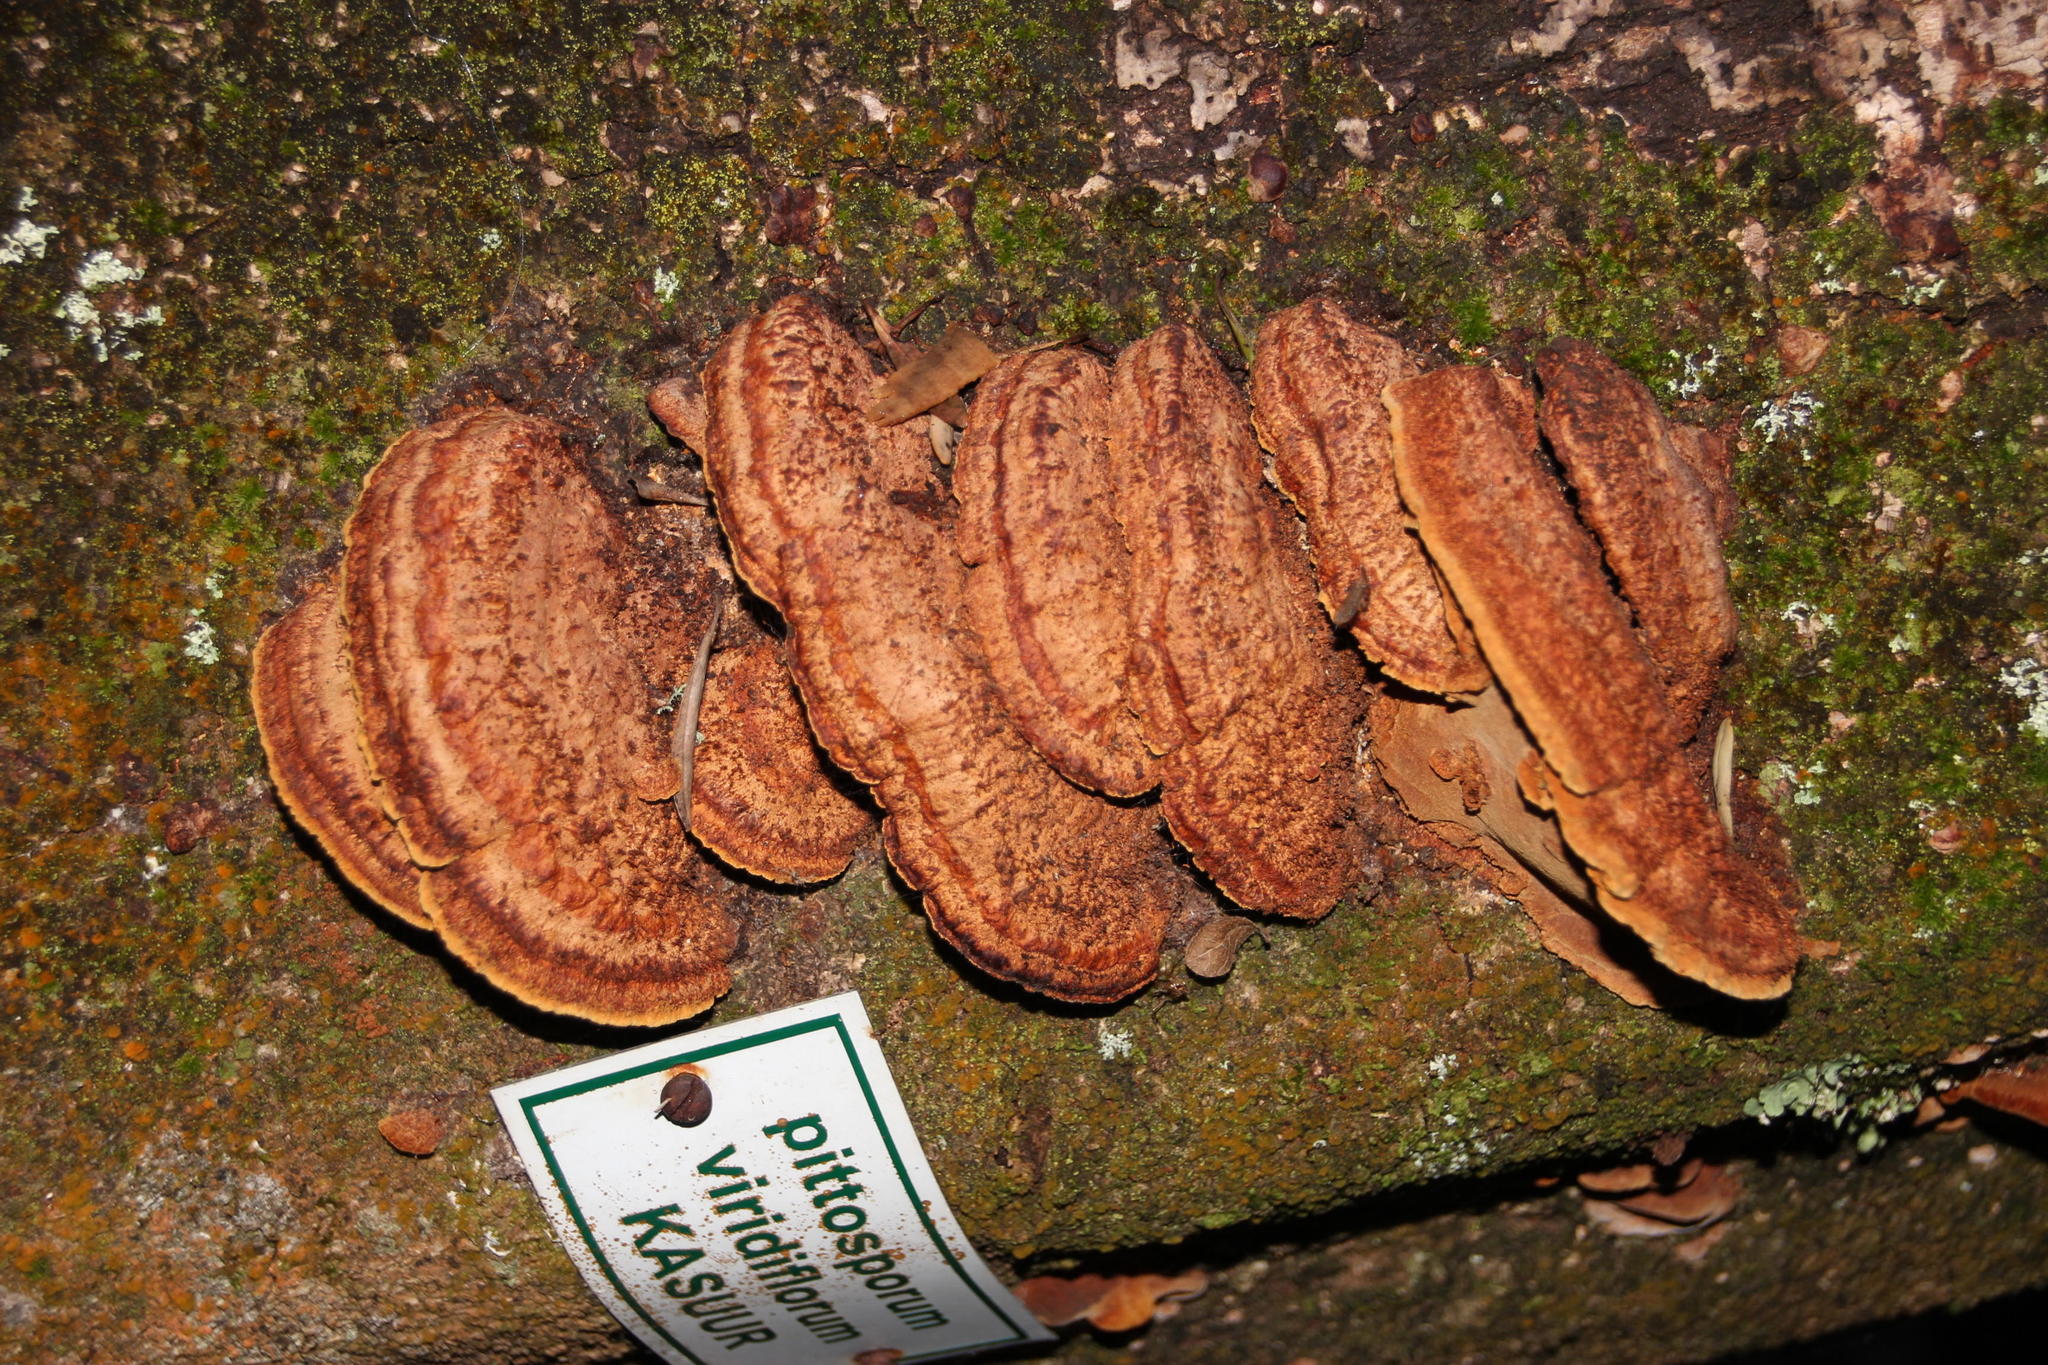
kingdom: Fungi
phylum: Basidiomycota
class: Agaricomycetes
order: Hymenochaetales
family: Hymenochaetaceae
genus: Phellinus
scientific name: Phellinus gilvus
